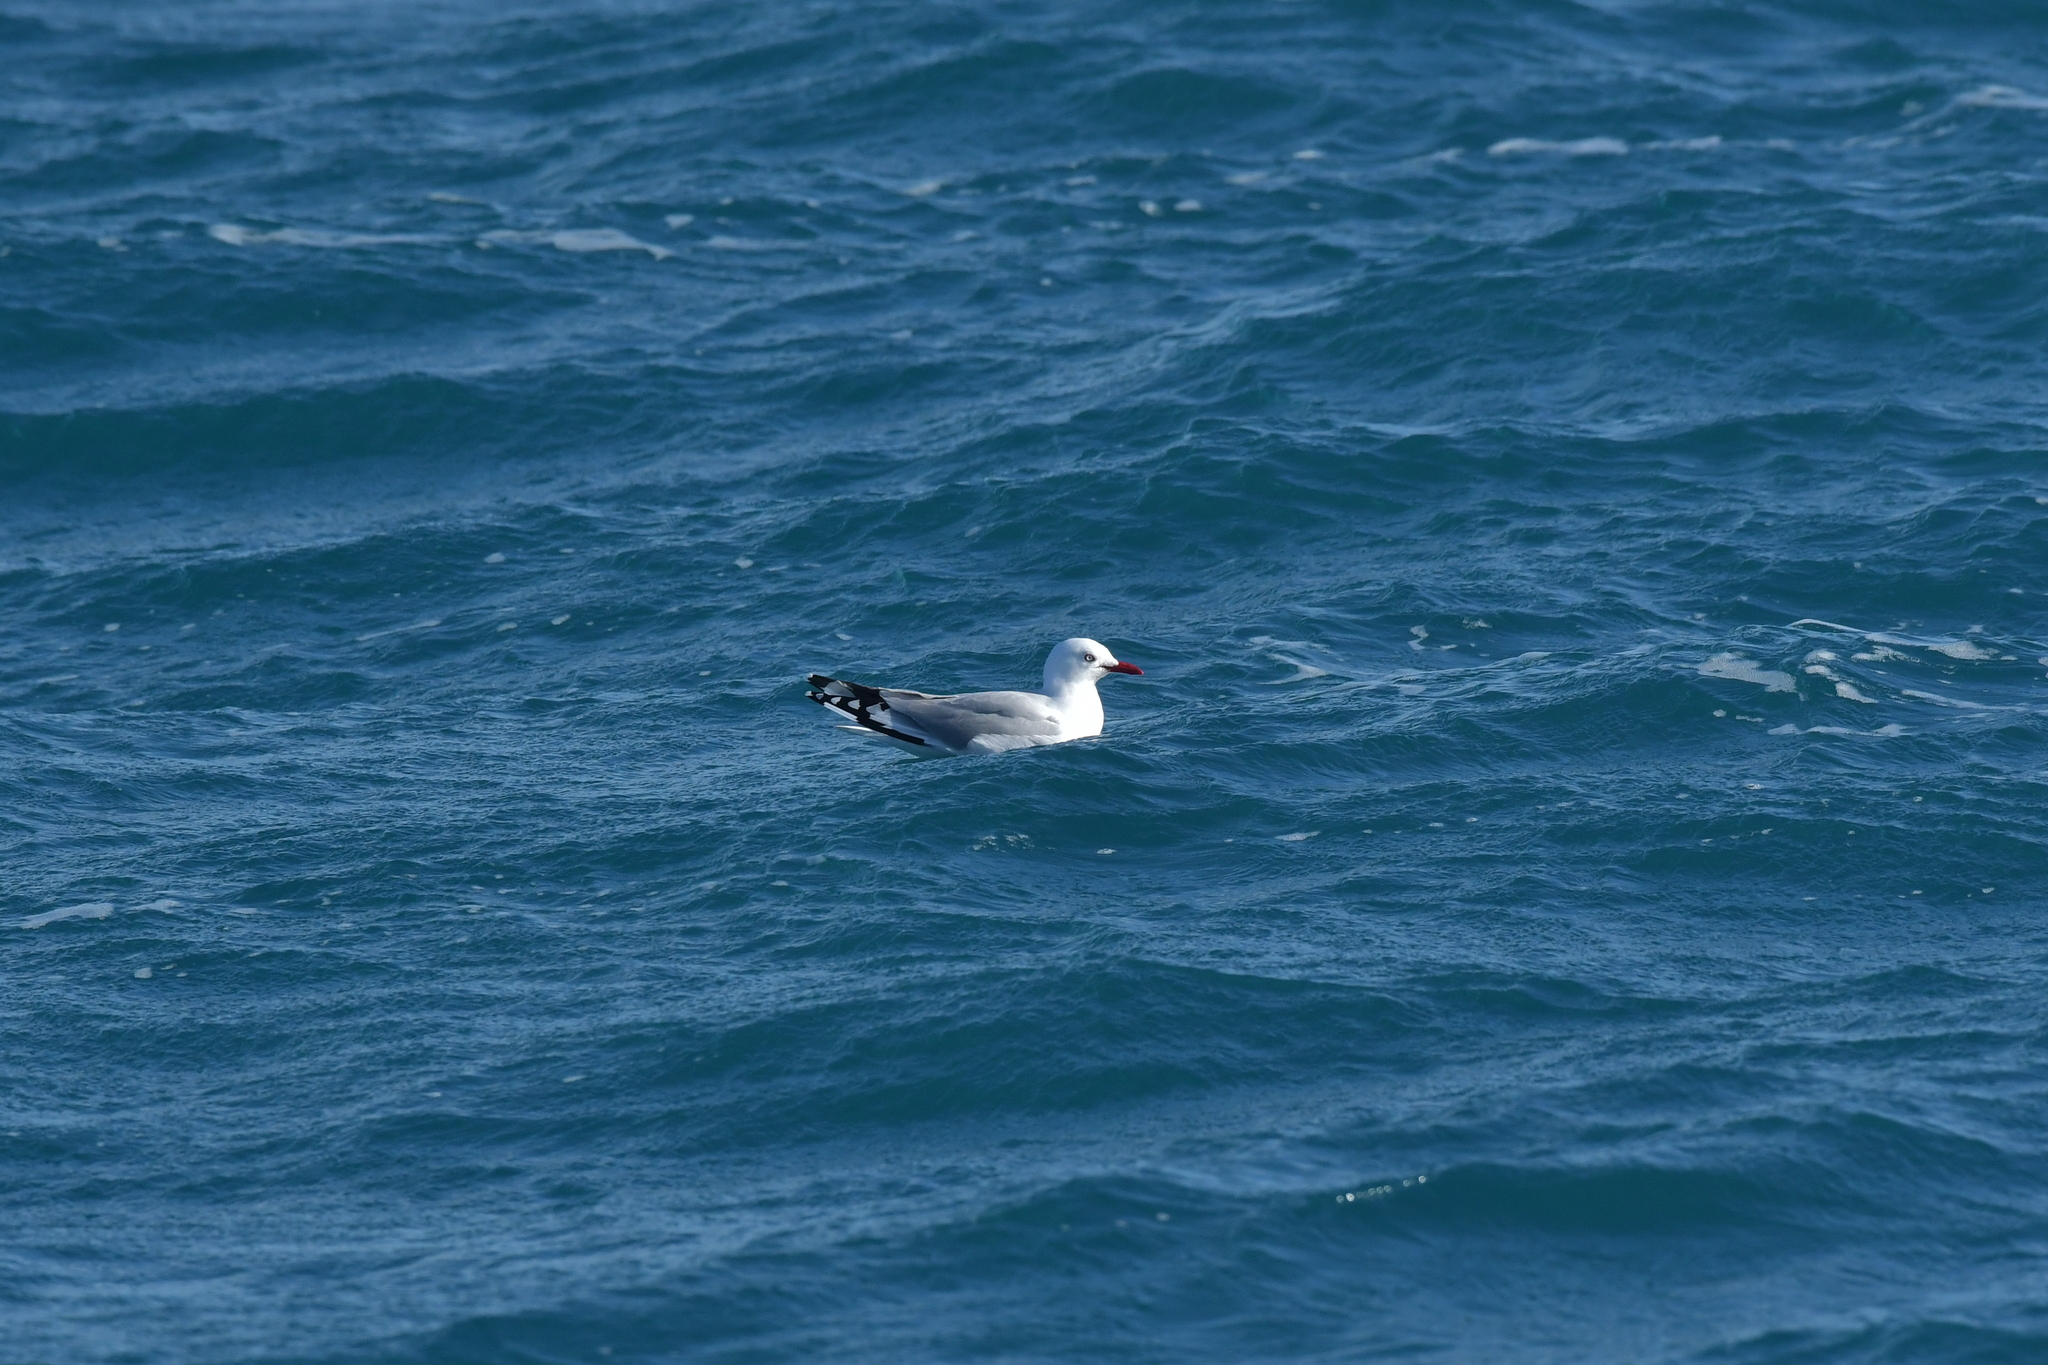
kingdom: Animalia
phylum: Chordata
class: Aves
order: Charadriiformes
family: Laridae
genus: Chroicocephalus
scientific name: Chroicocephalus novaehollandiae
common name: Silver gull
